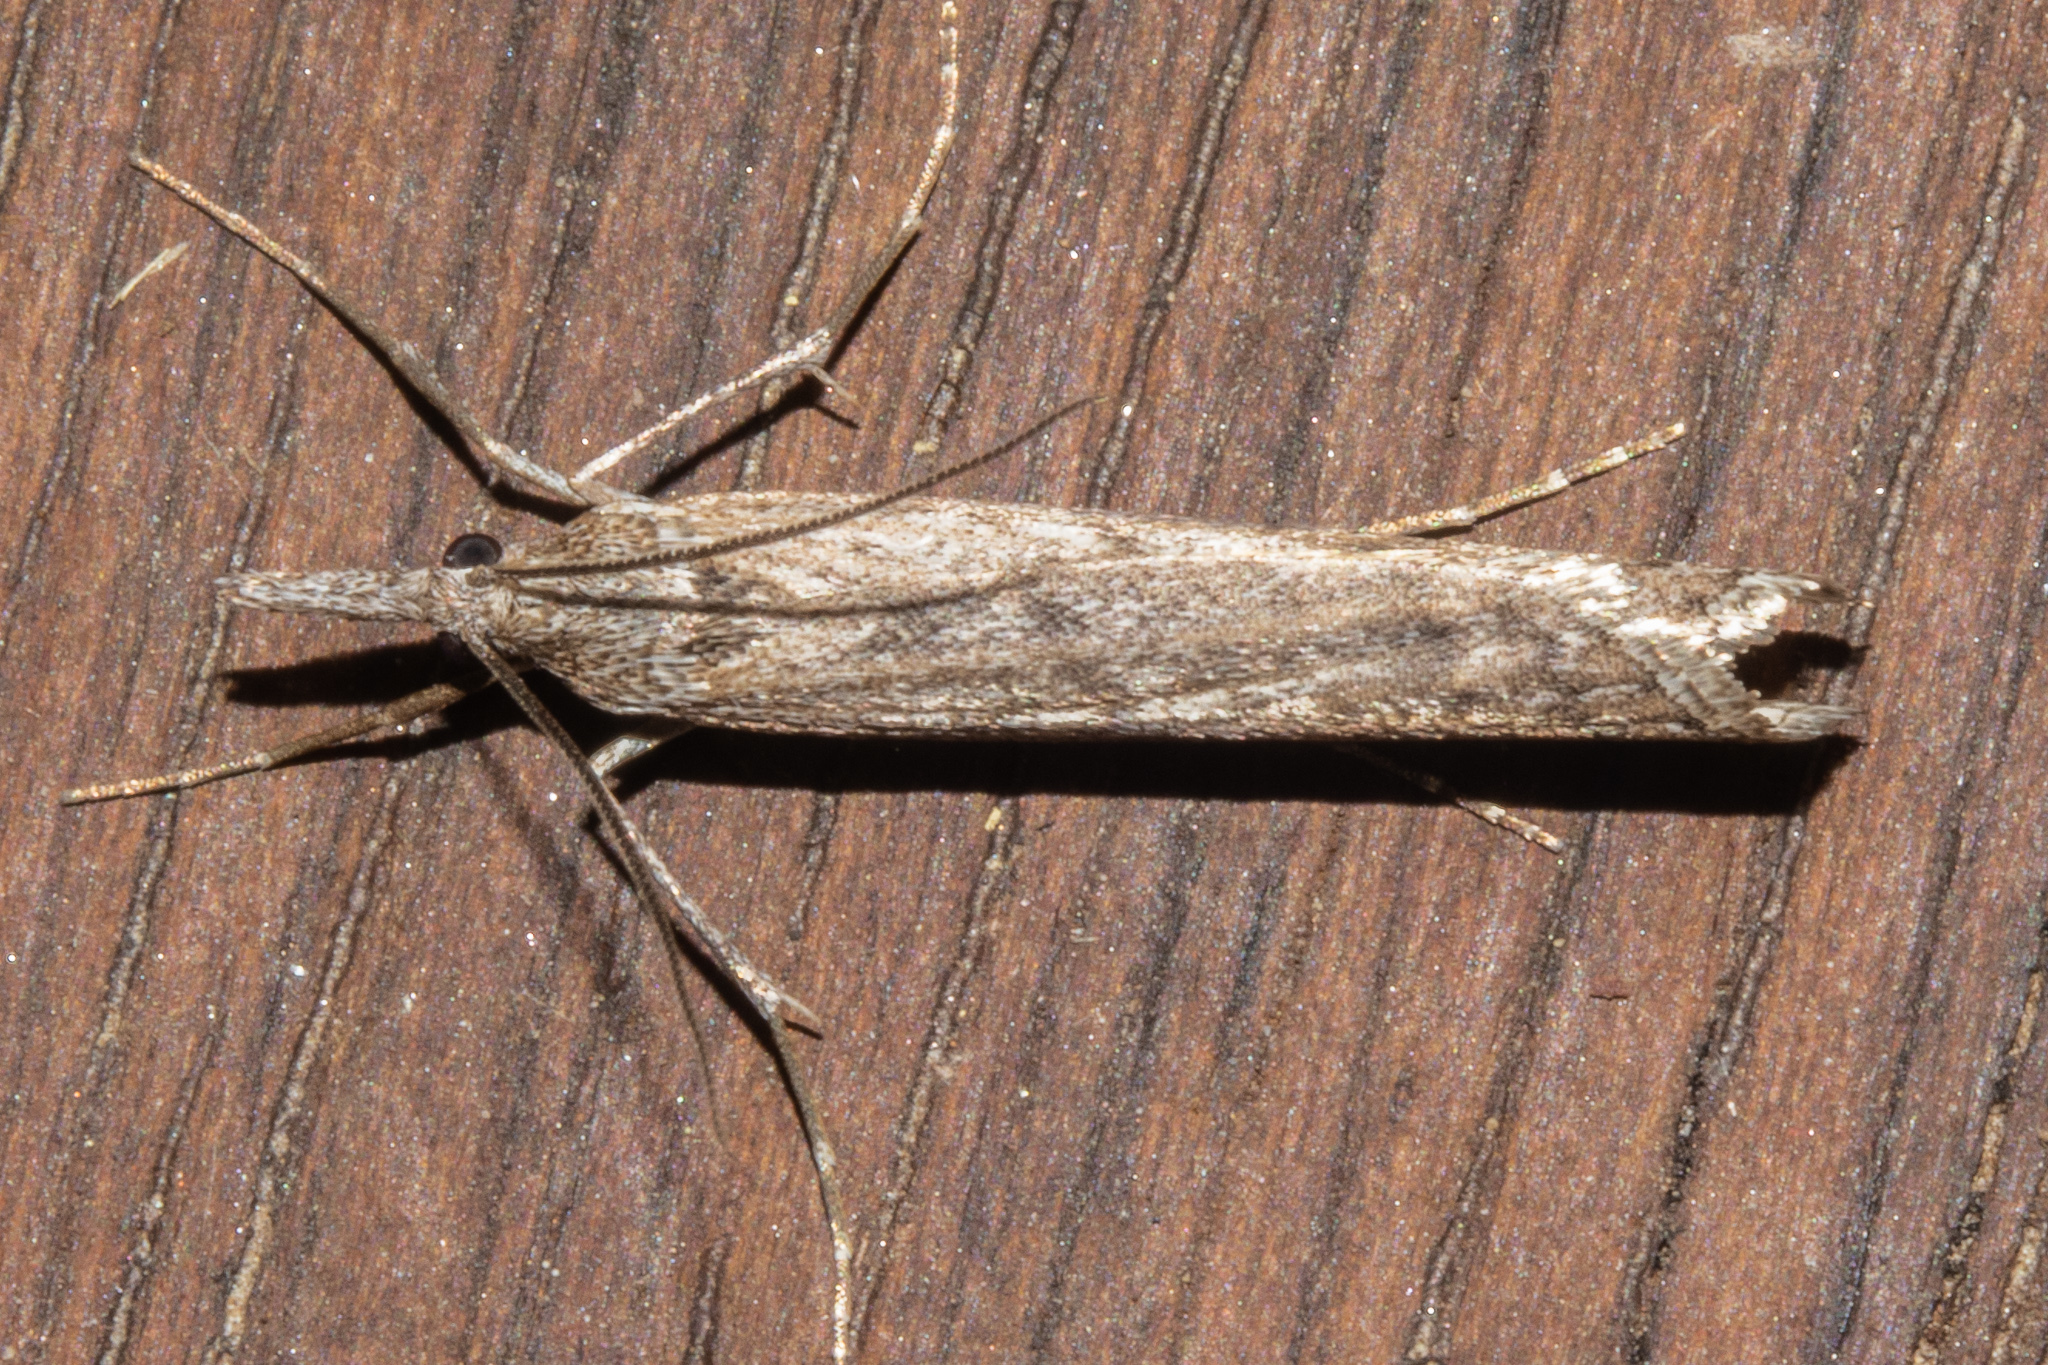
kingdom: Animalia
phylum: Arthropoda
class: Insecta
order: Lepidoptera
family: Crambidae
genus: Orocrambus
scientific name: Orocrambus cyclopicus
